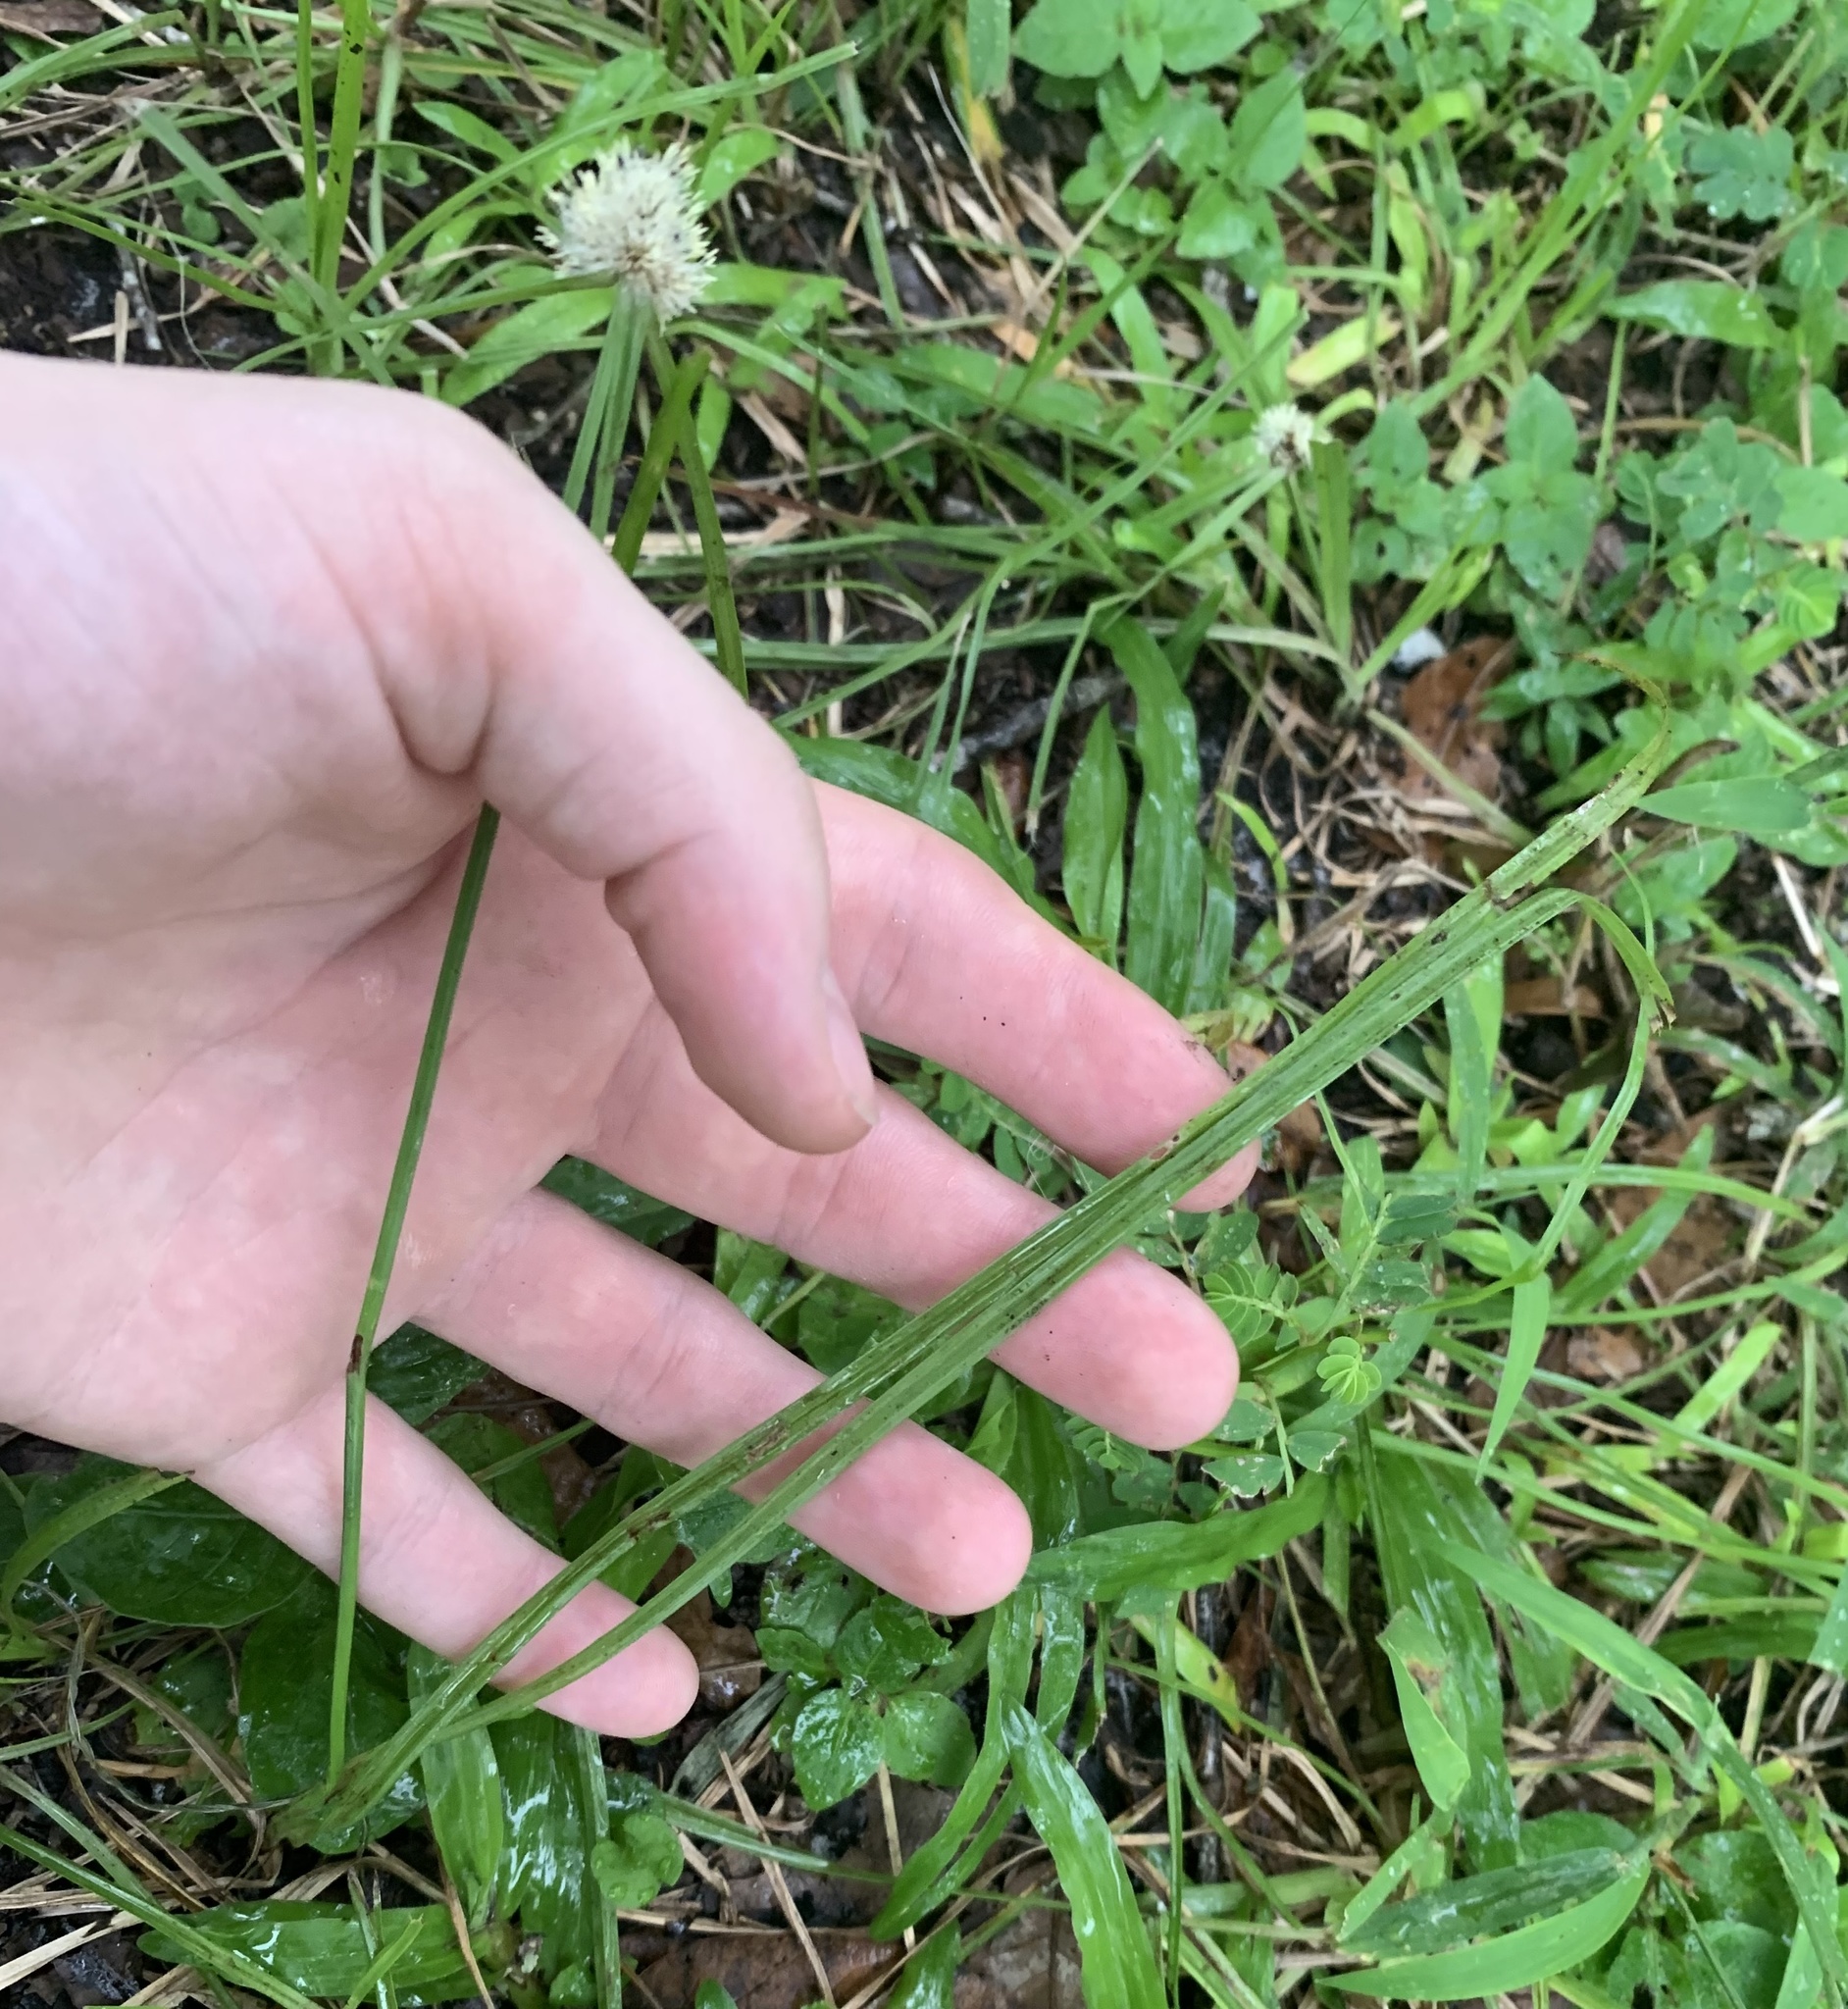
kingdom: Plantae
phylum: Tracheophyta
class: Liliopsida
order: Poales
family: Cyperaceae
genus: Cyperus
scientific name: Cyperus richardii
